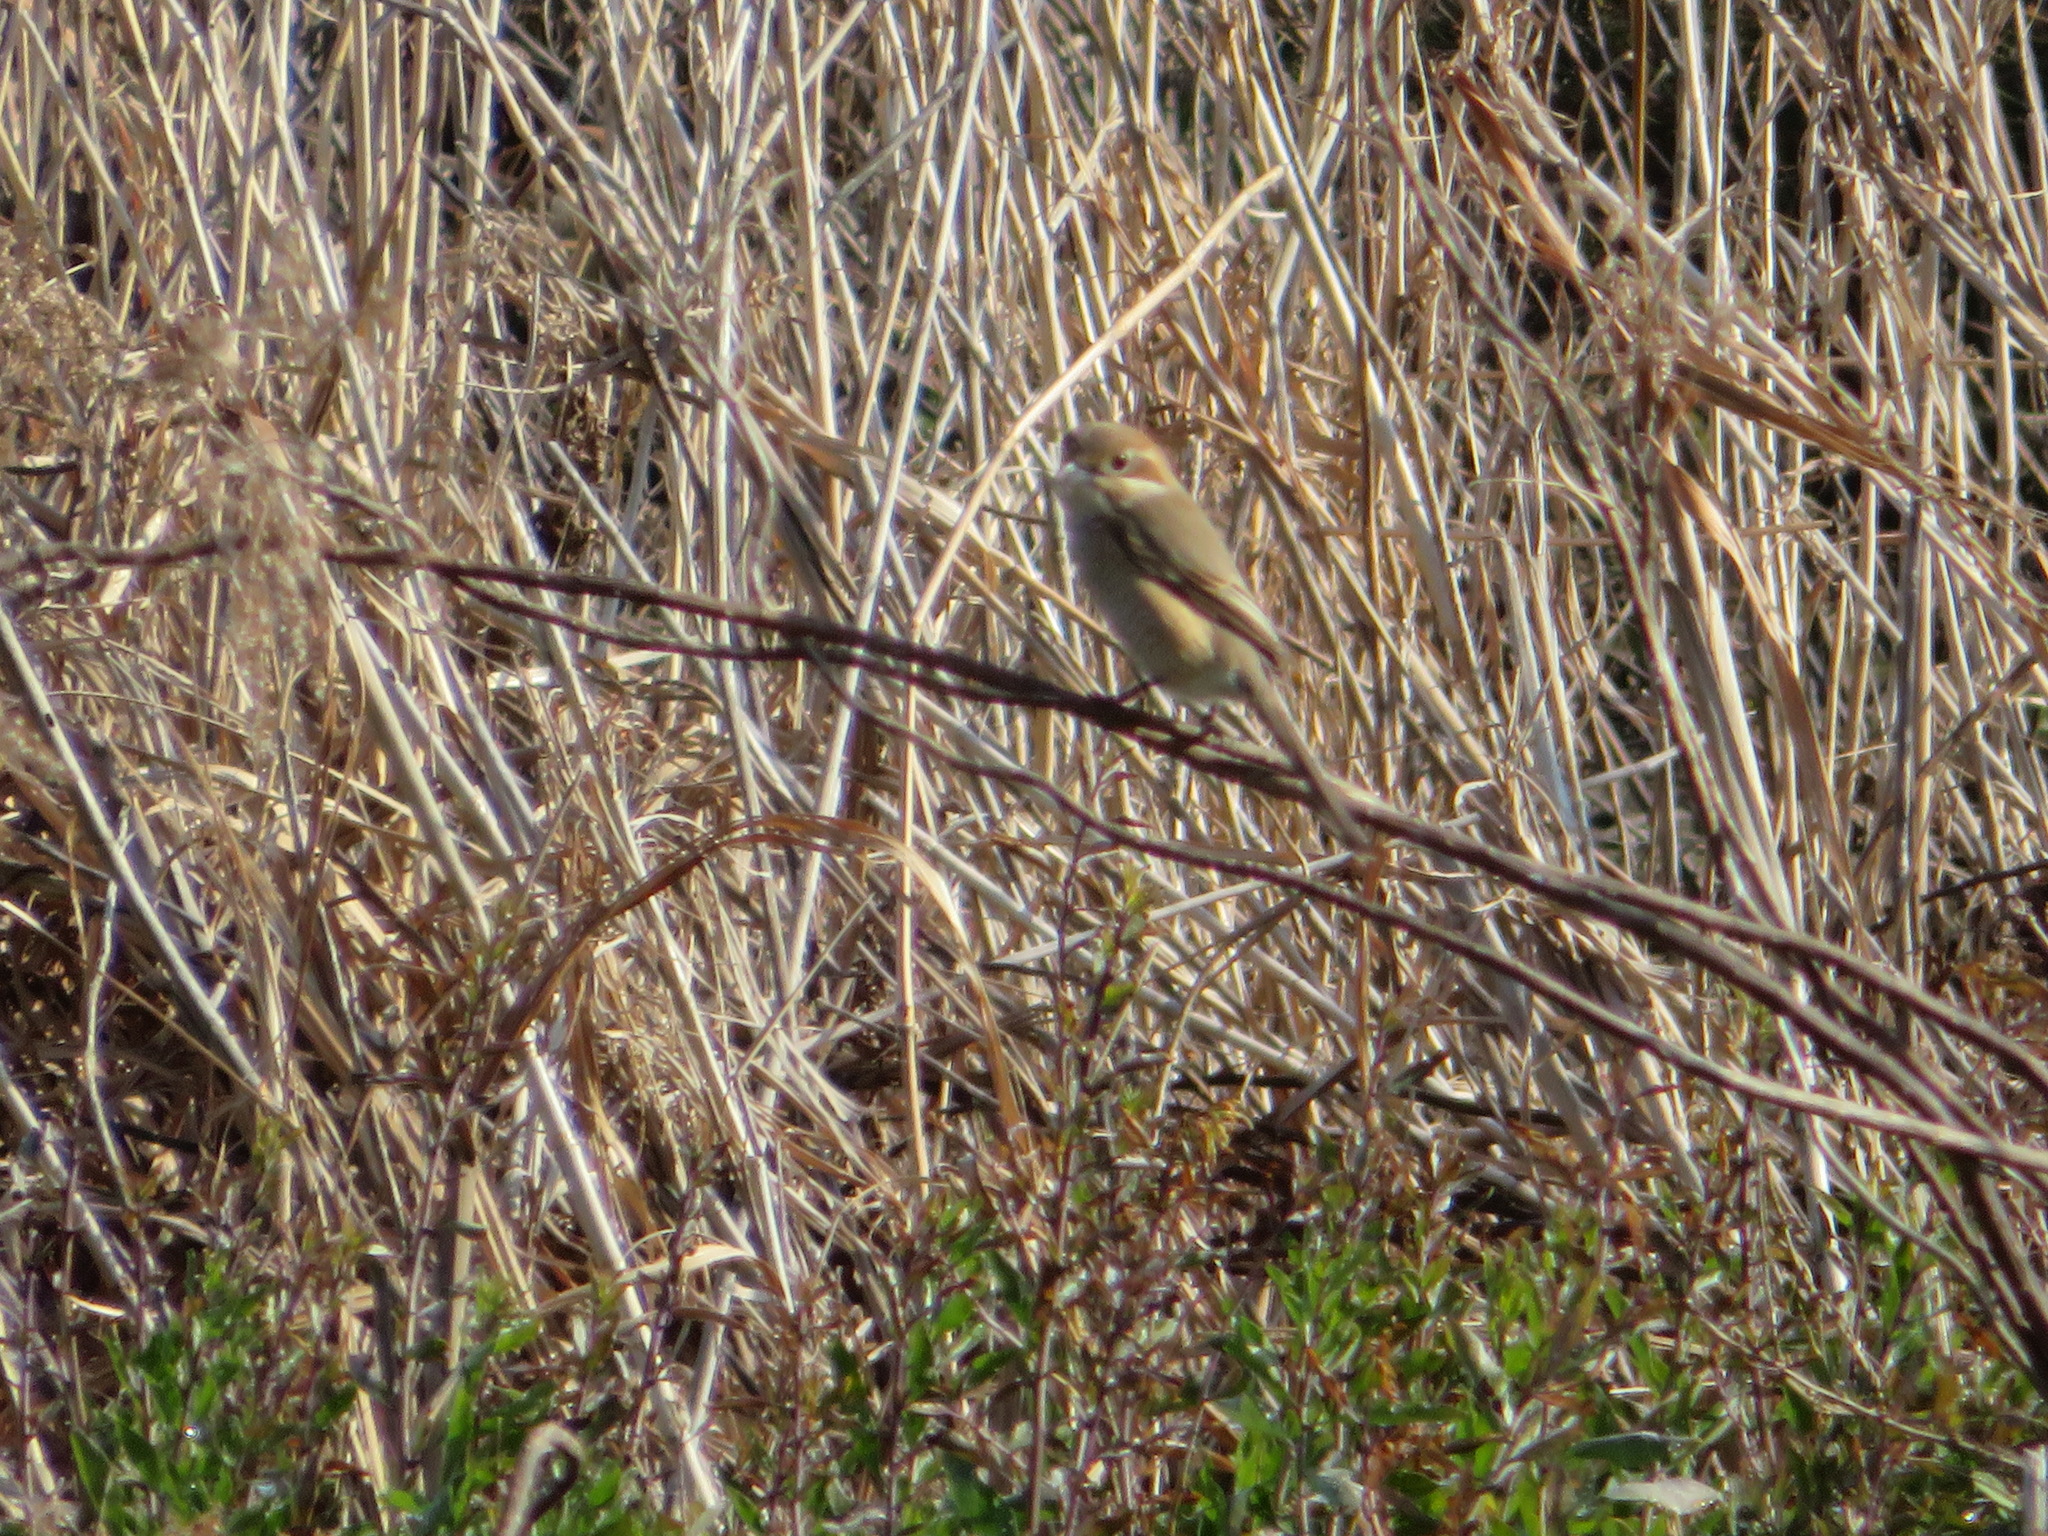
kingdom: Animalia
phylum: Chordata
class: Aves
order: Passeriformes
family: Laniidae
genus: Lanius
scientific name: Lanius bucephalus
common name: Bull-headed shrike
